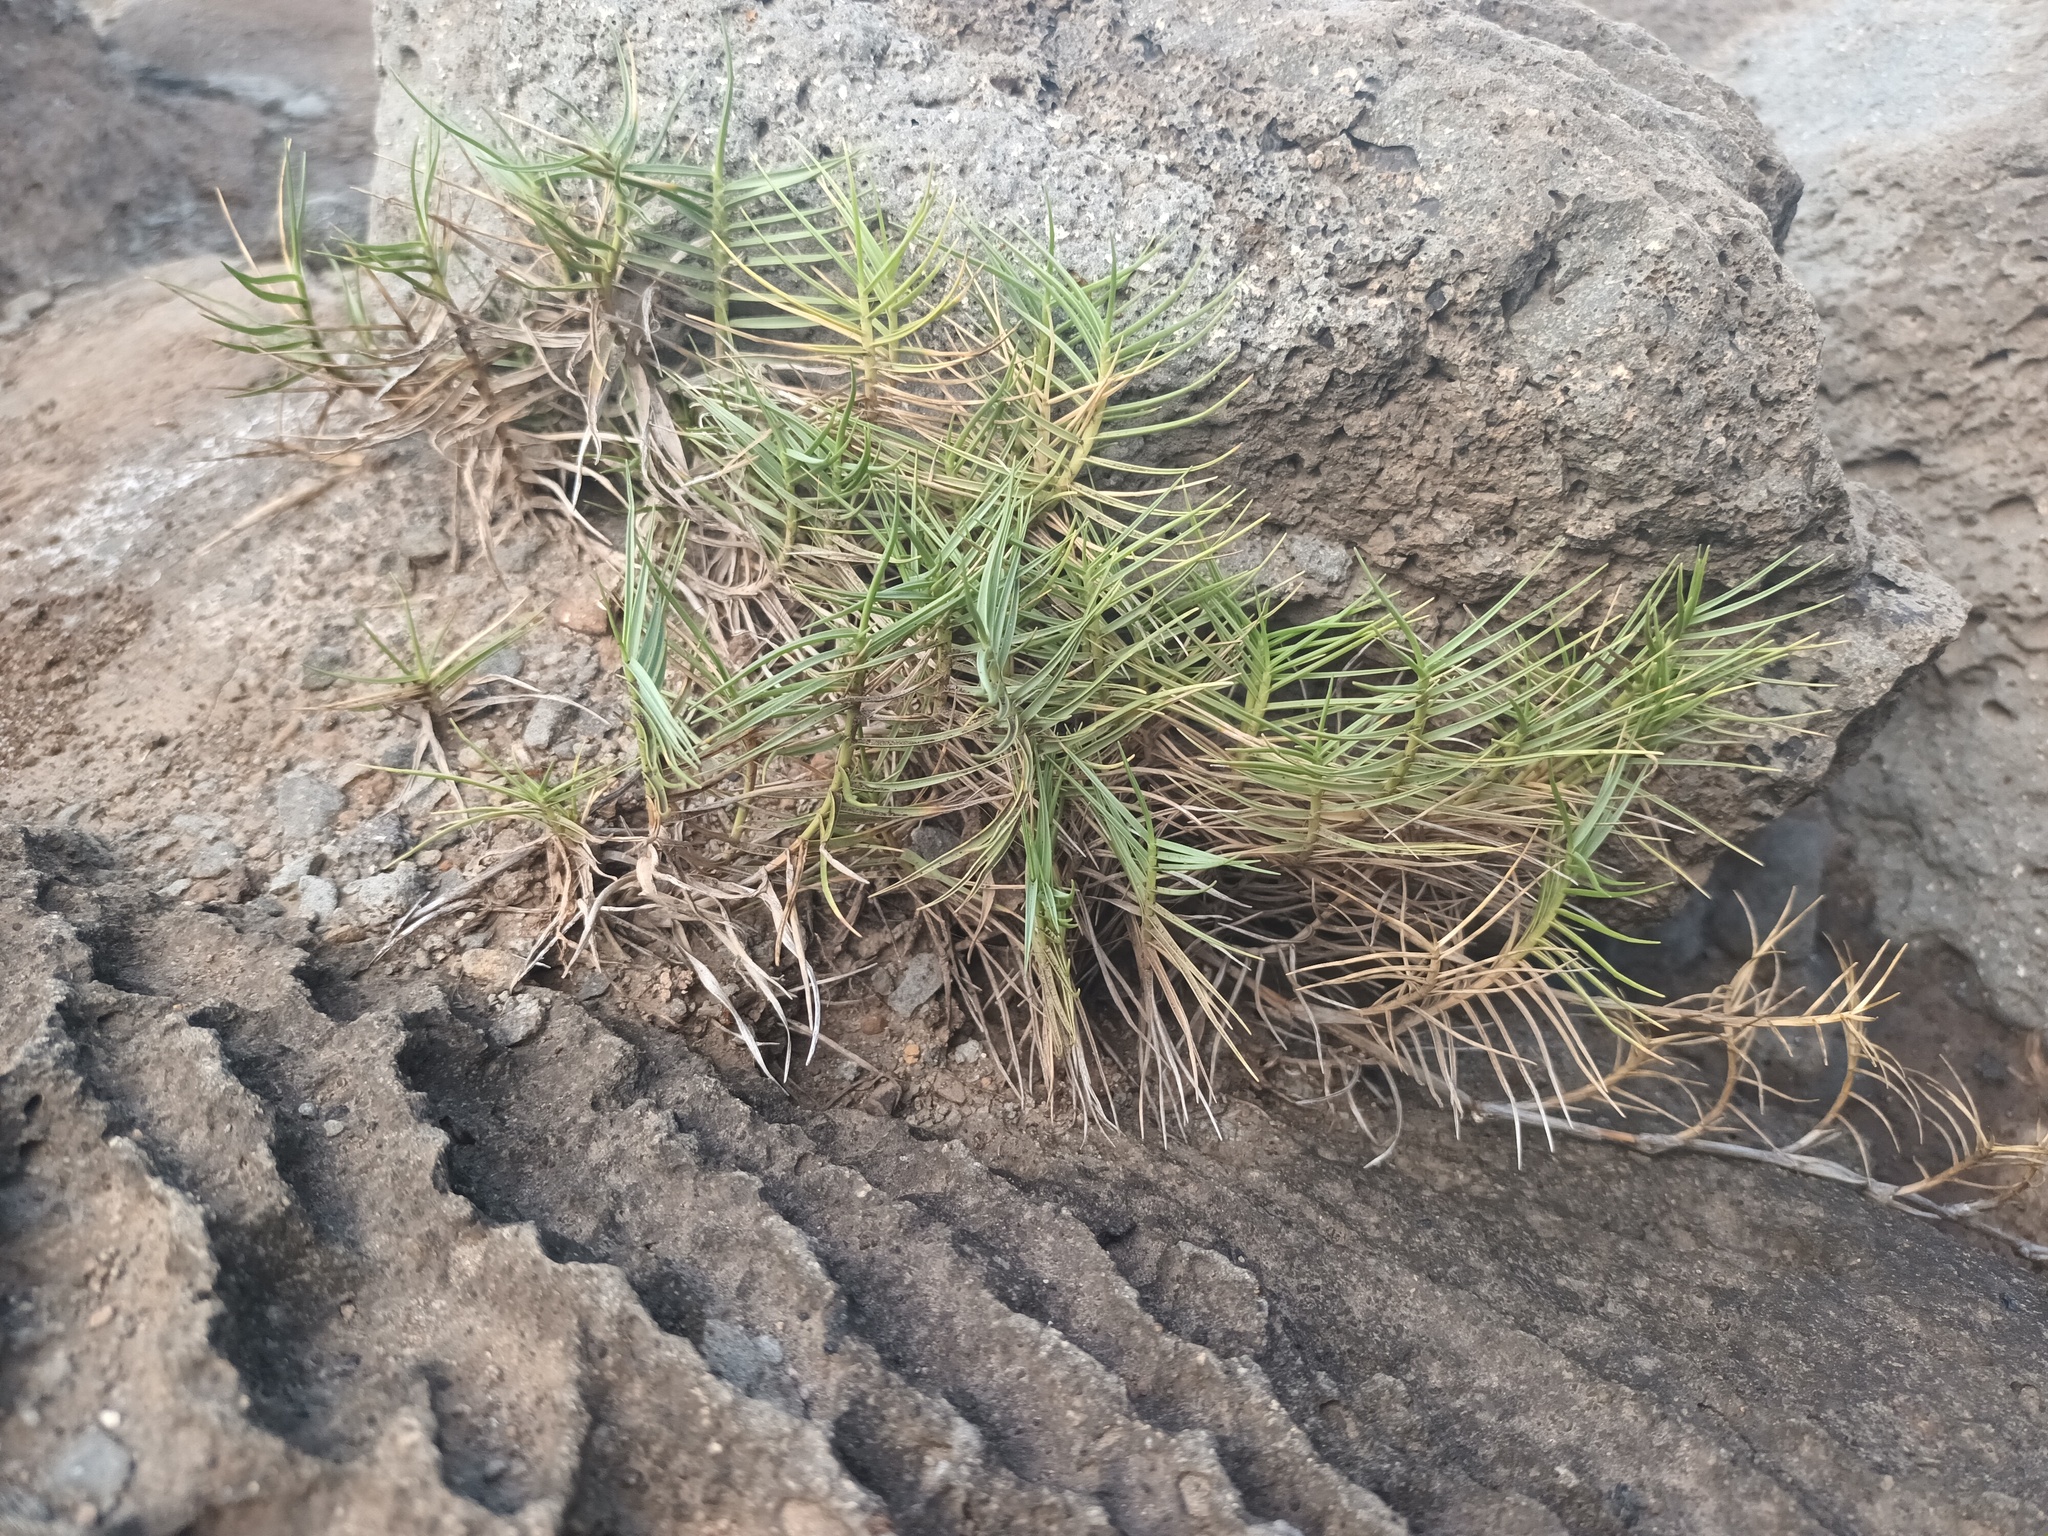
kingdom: Plantae
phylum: Tracheophyta
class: Liliopsida
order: Poales
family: Poaceae
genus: Sporobolus
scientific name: Sporobolus virginicus
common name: Beach dropseed
